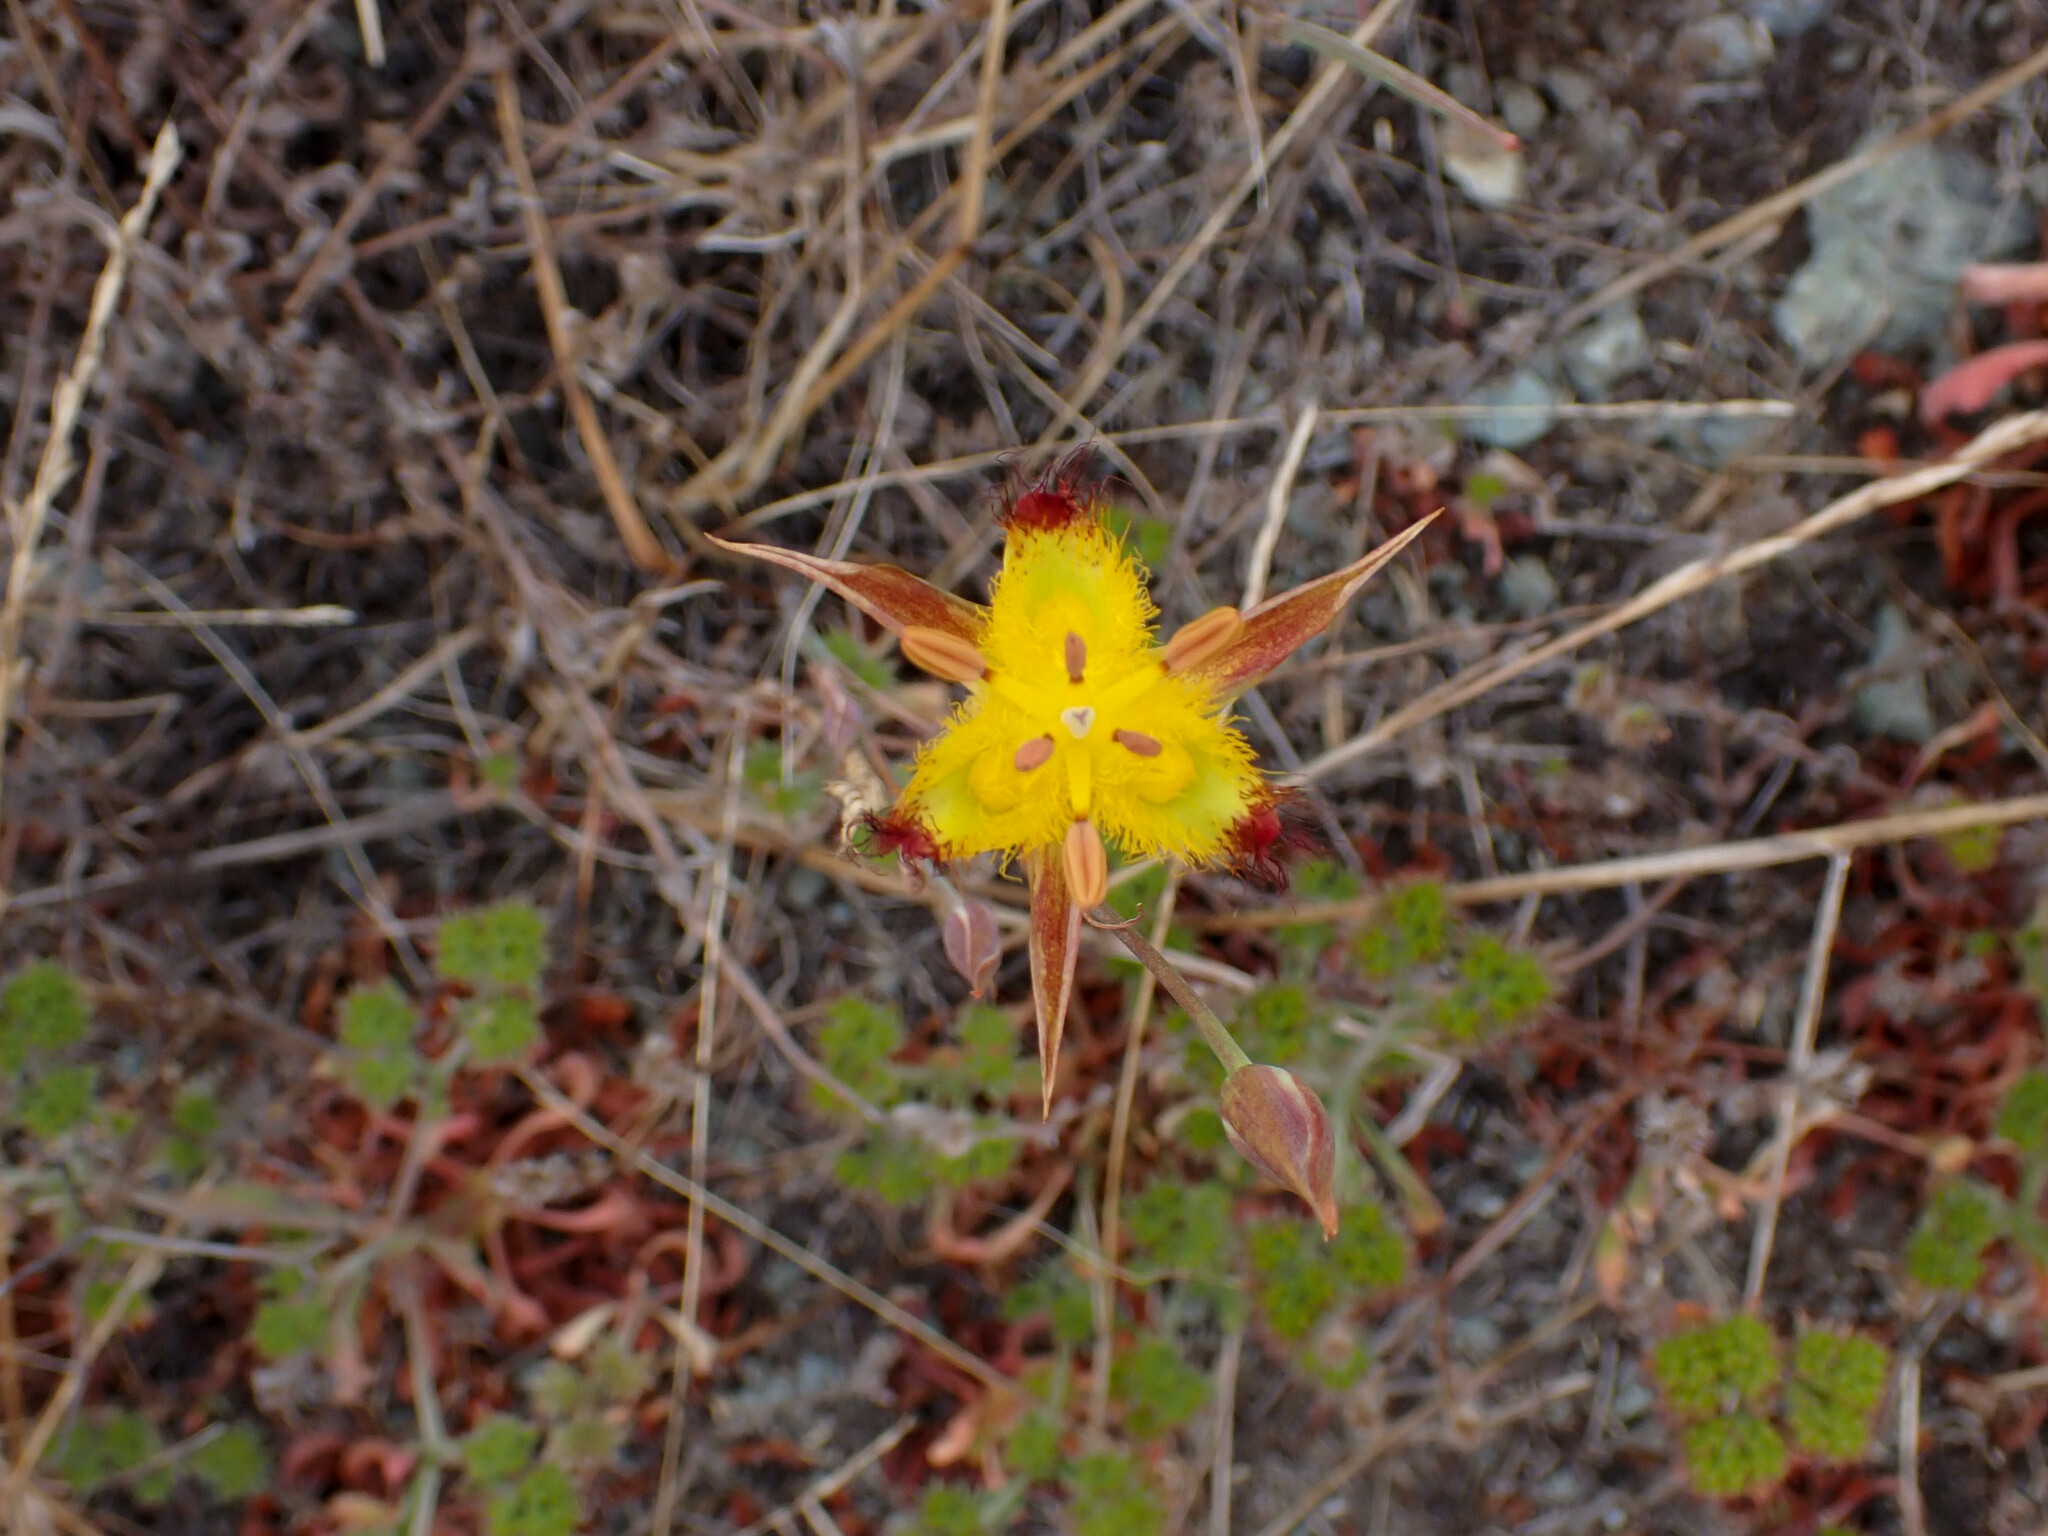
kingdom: Plantae
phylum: Tracheophyta
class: Liliopsida
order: Liliales
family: Liliaceae
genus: Calochortus
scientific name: Calochortus obispoensis
